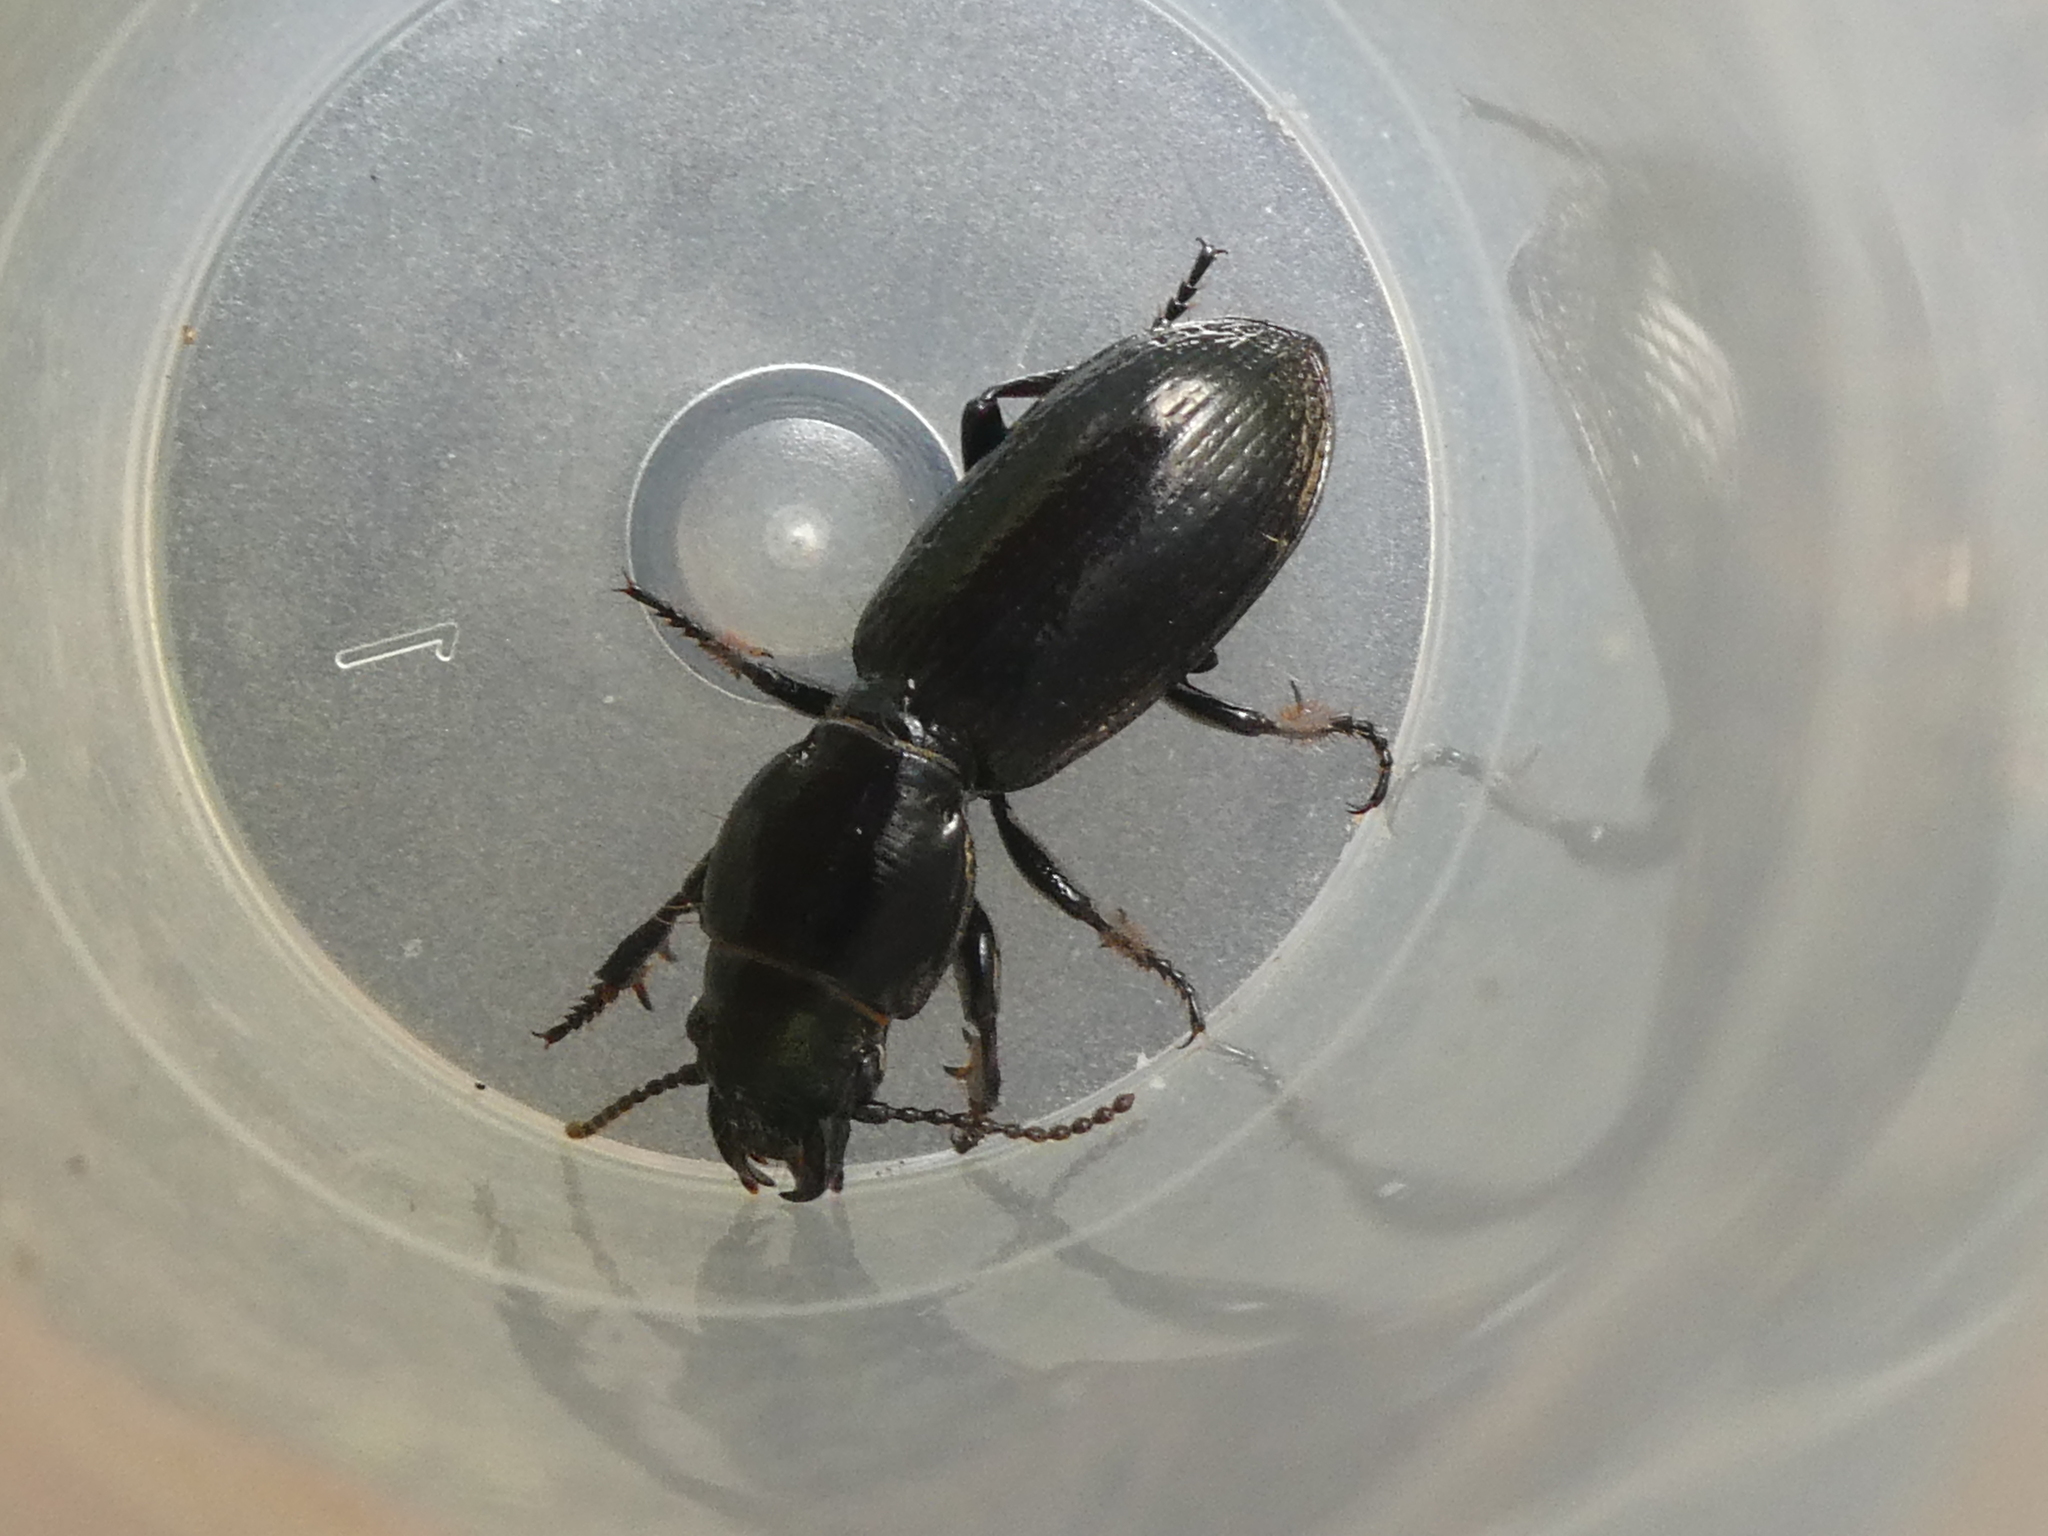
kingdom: Animalia
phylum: Arthropoda
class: Insecta
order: Coleoptera
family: Carabidae
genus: Mecodema
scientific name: Mecodema strictum
